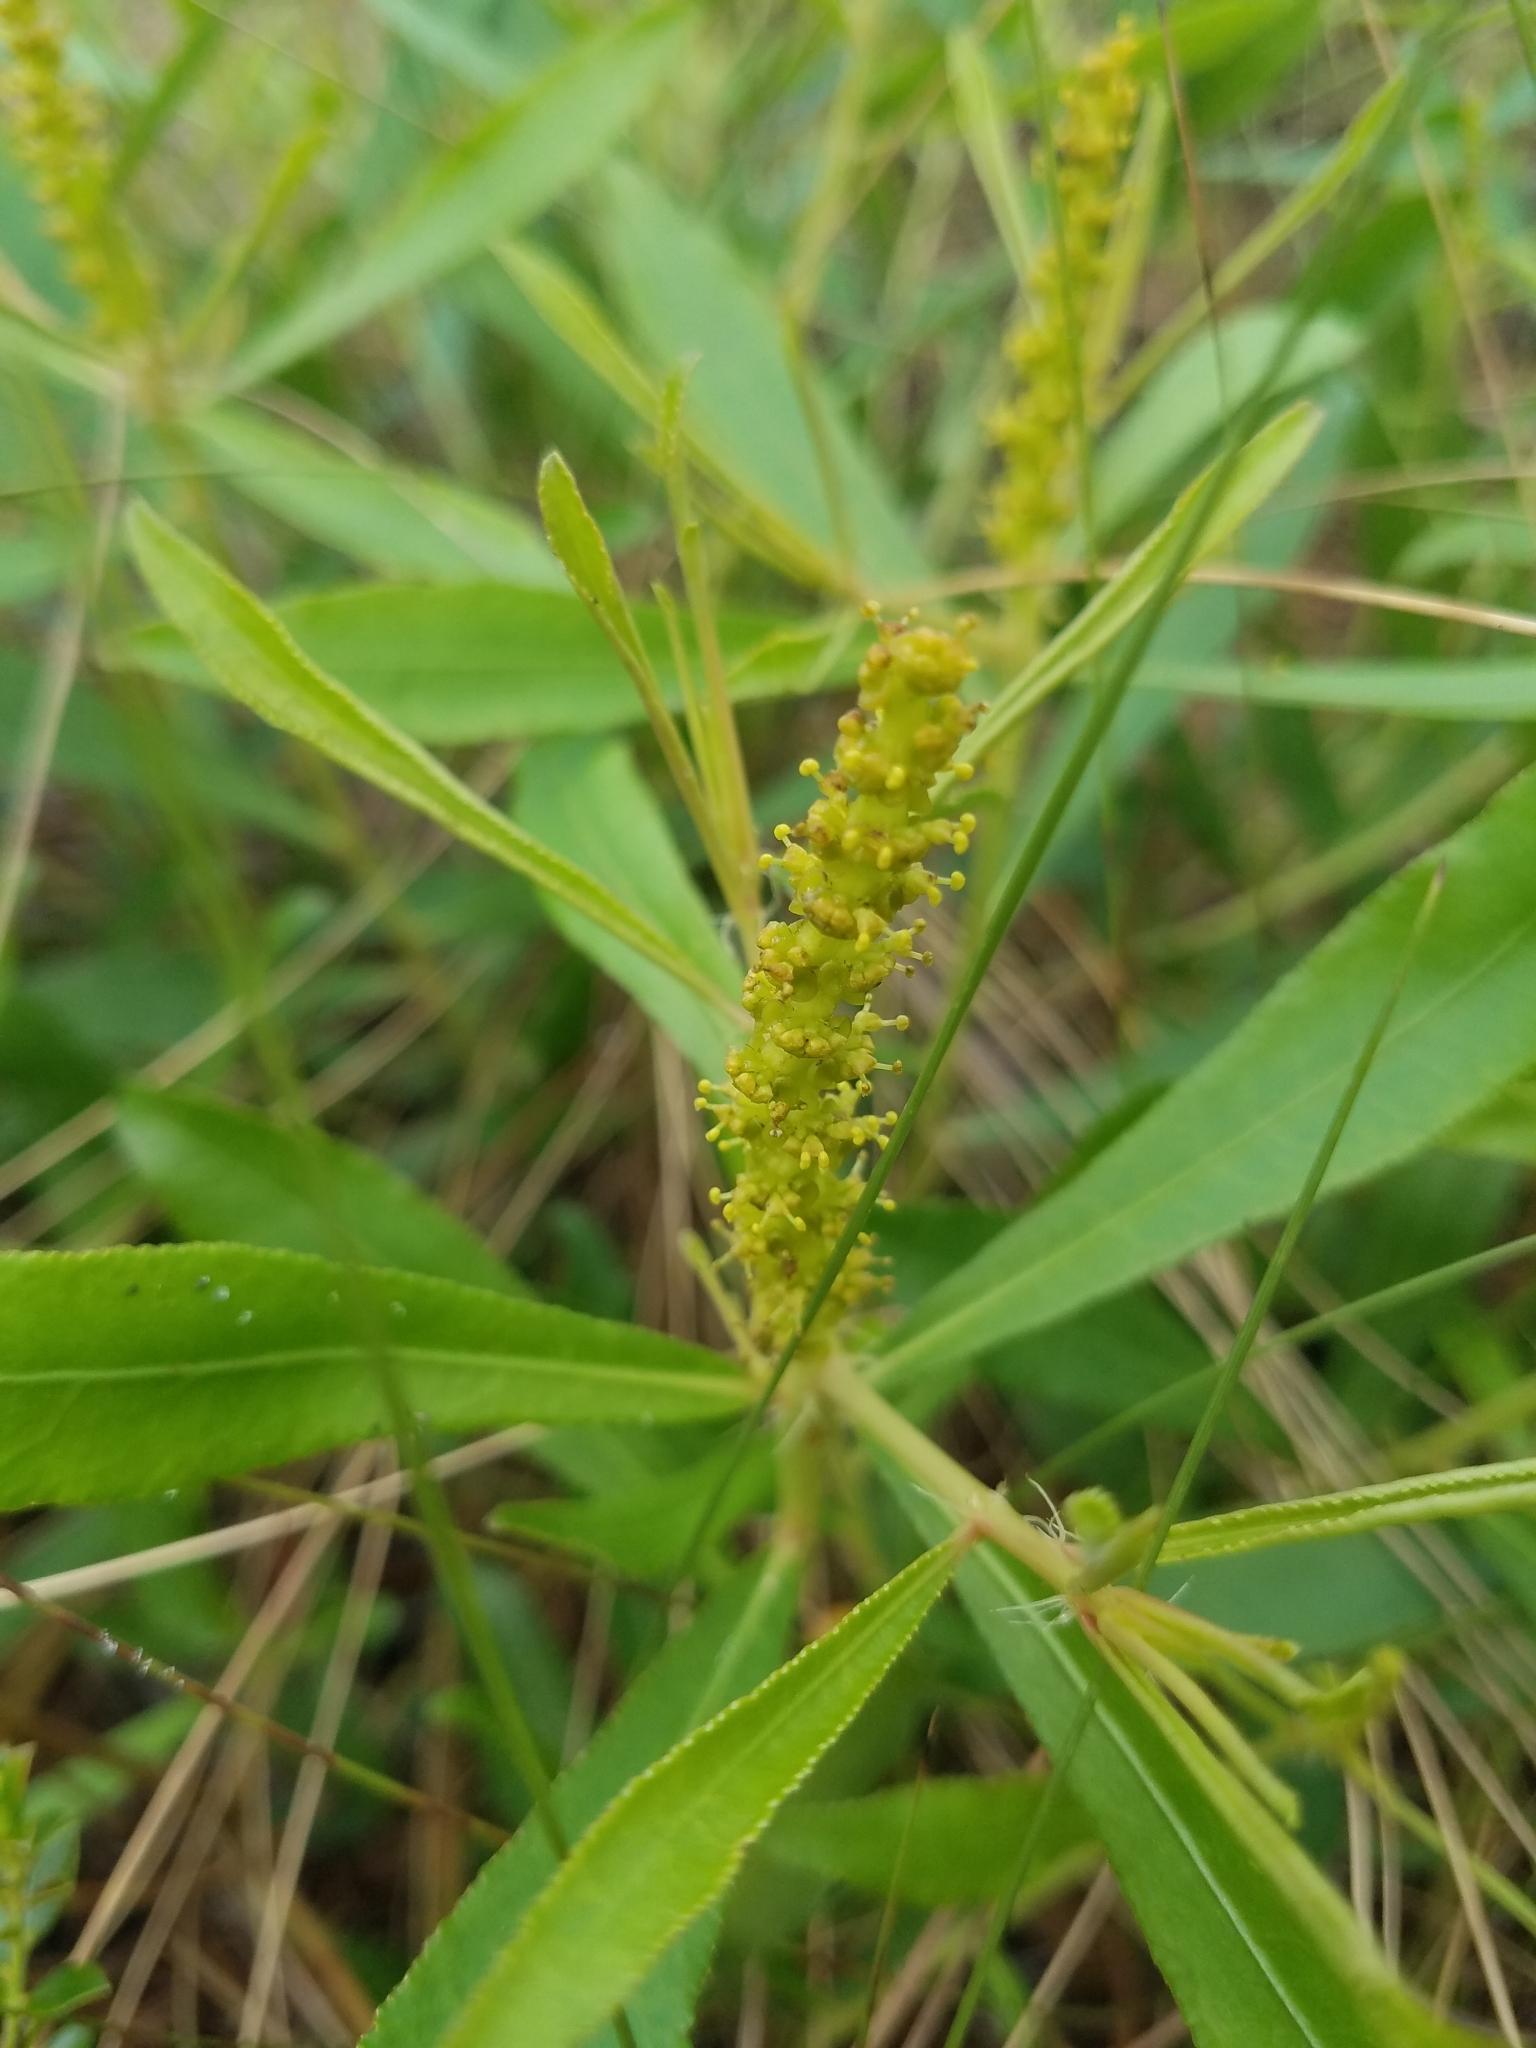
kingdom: Plantae
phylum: Tracheophyta
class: Magnoliopsida
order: Malpighiales
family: Euphorbiaceae
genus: Stillingia
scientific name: Stillingia sylvatica
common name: Queen's-delight
